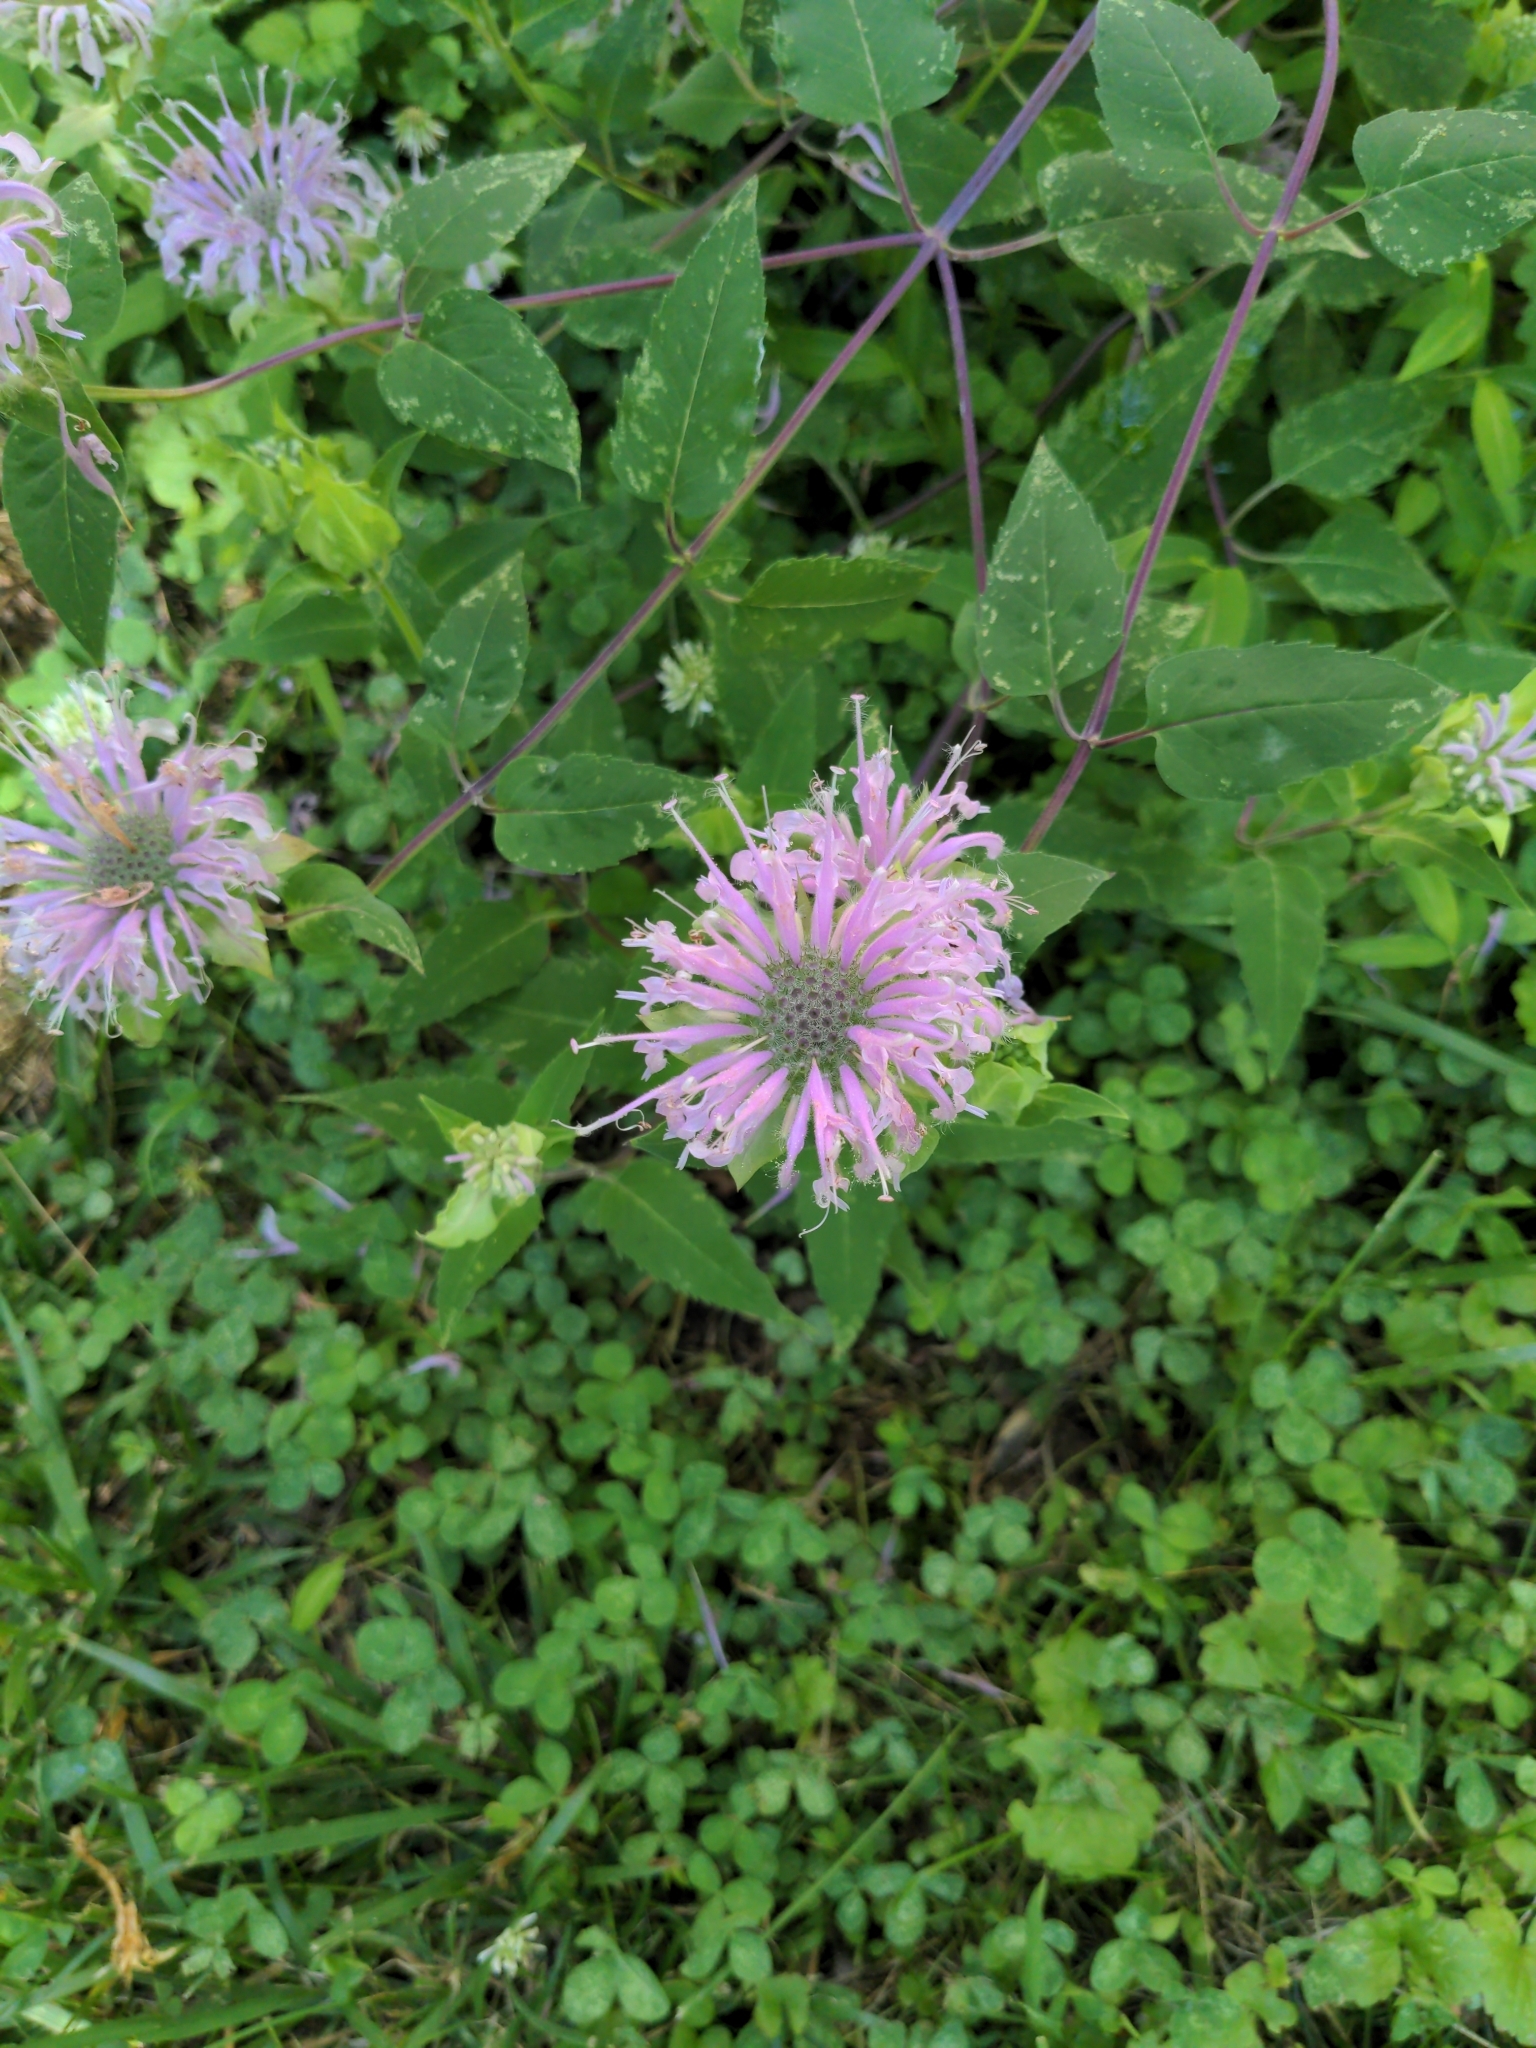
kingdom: Plantae
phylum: Tracheophyta
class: Magnoliopsida
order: Lamiales
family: Lamiaceae
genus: Monarda
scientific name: Monarda fistulosa
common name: Purple beebalm
